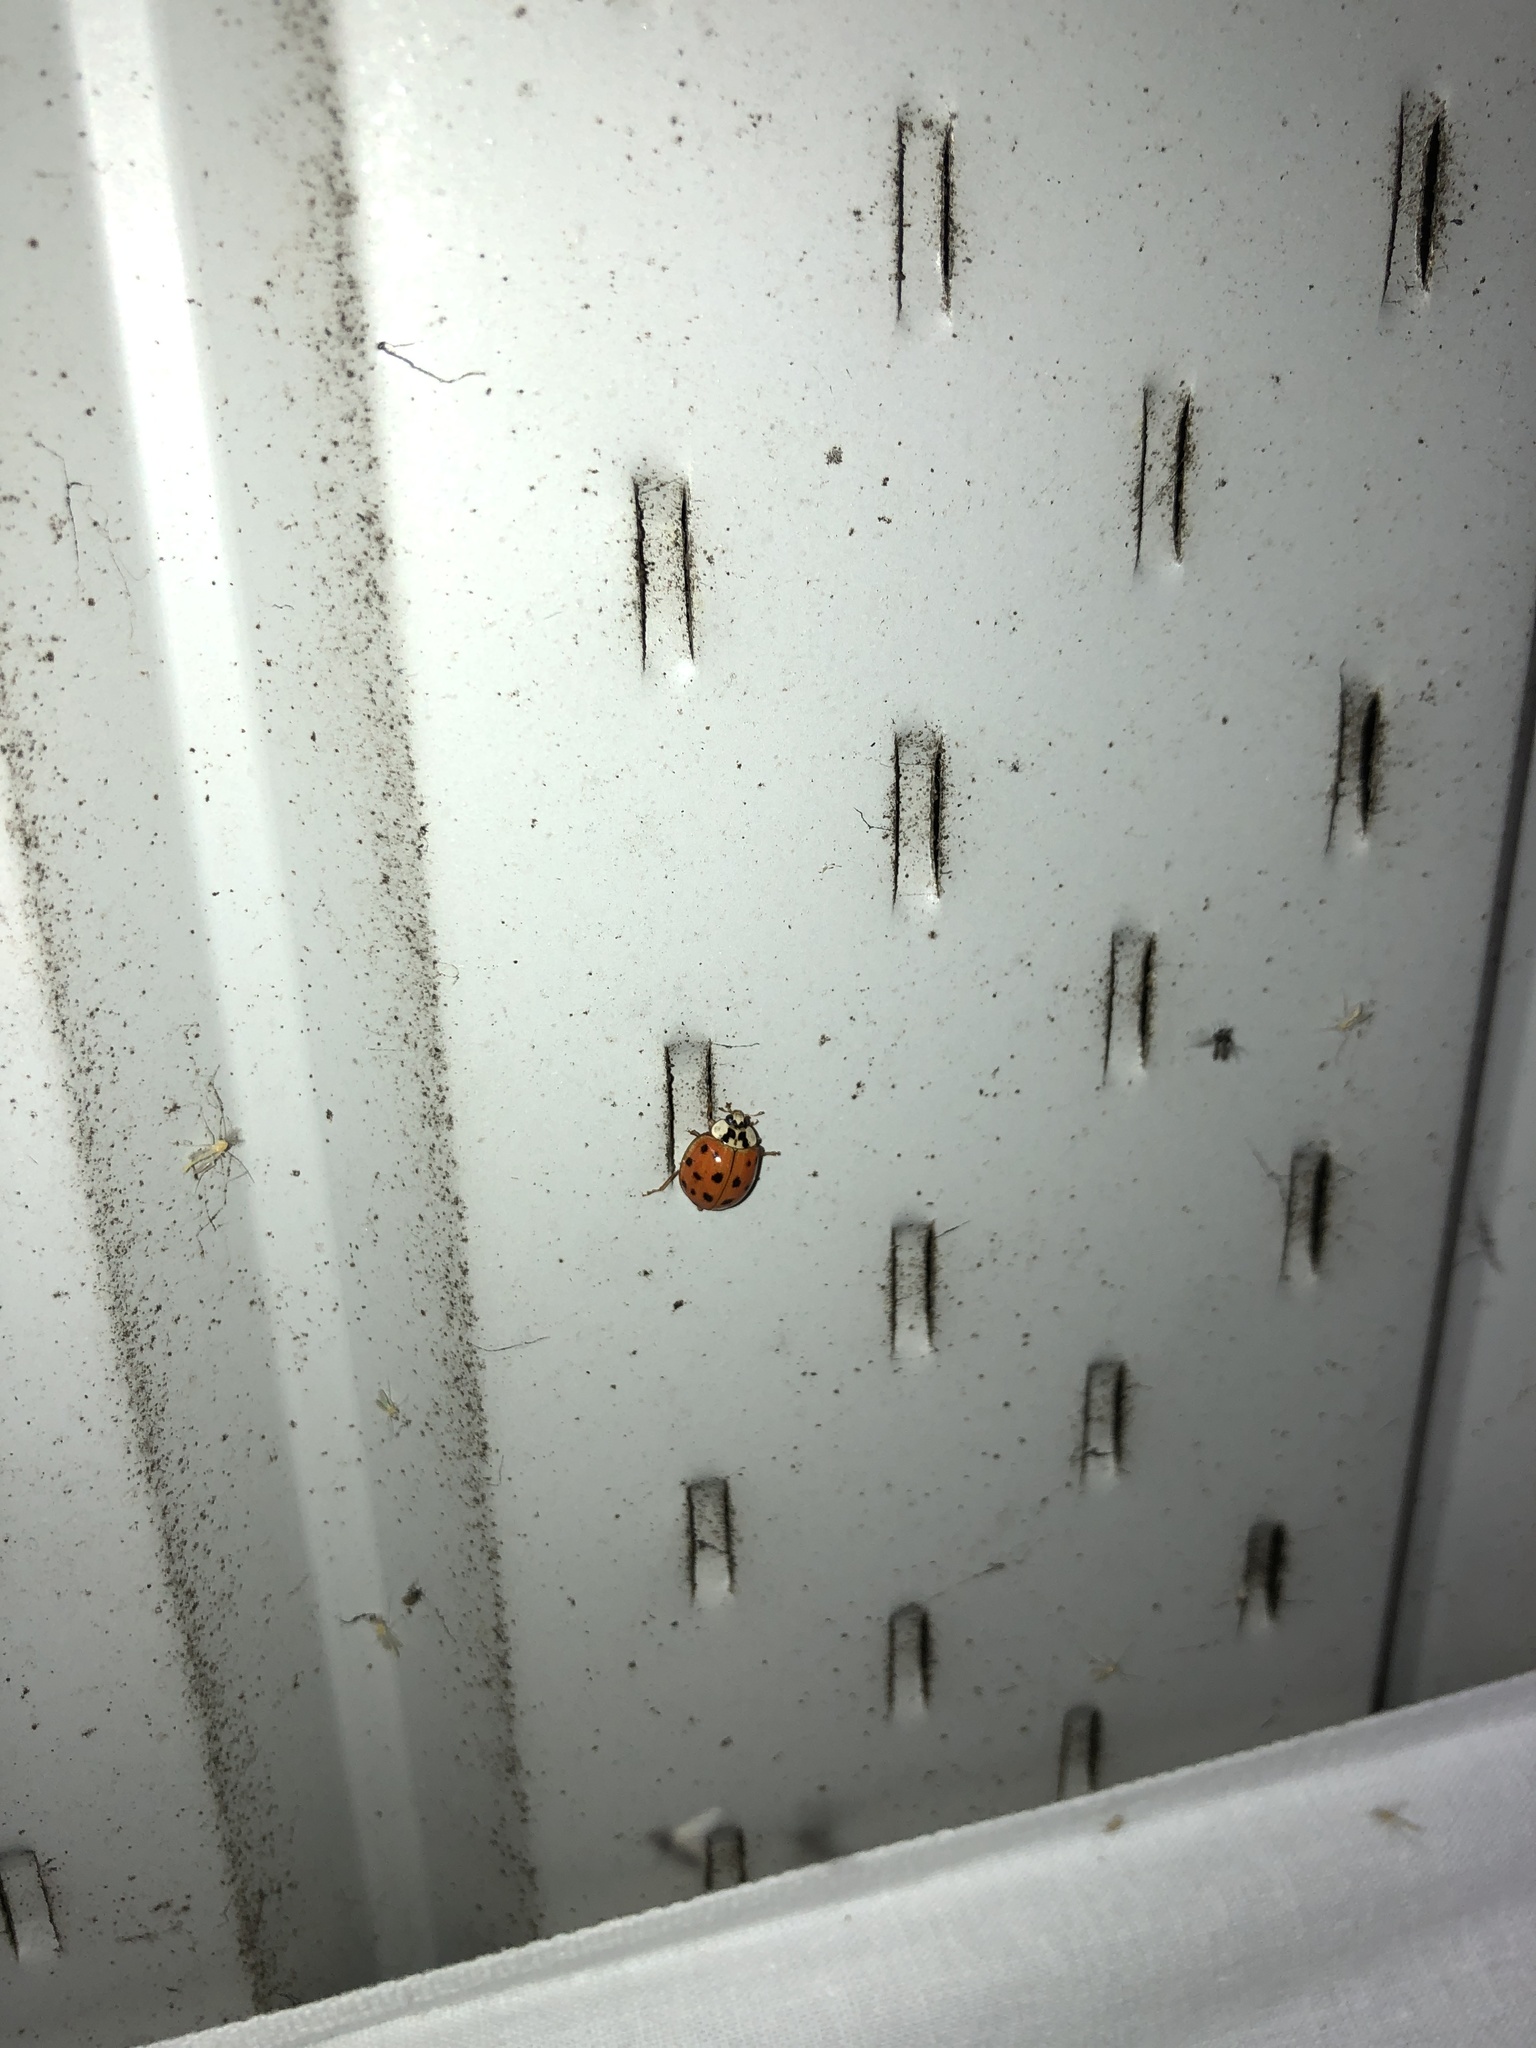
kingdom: Animalia
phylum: Arthropoda
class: Insecta
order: Coleoptera
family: Coccinellidae
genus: Harmonia
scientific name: Harmonia axyridis
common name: Harlequin ladybird
